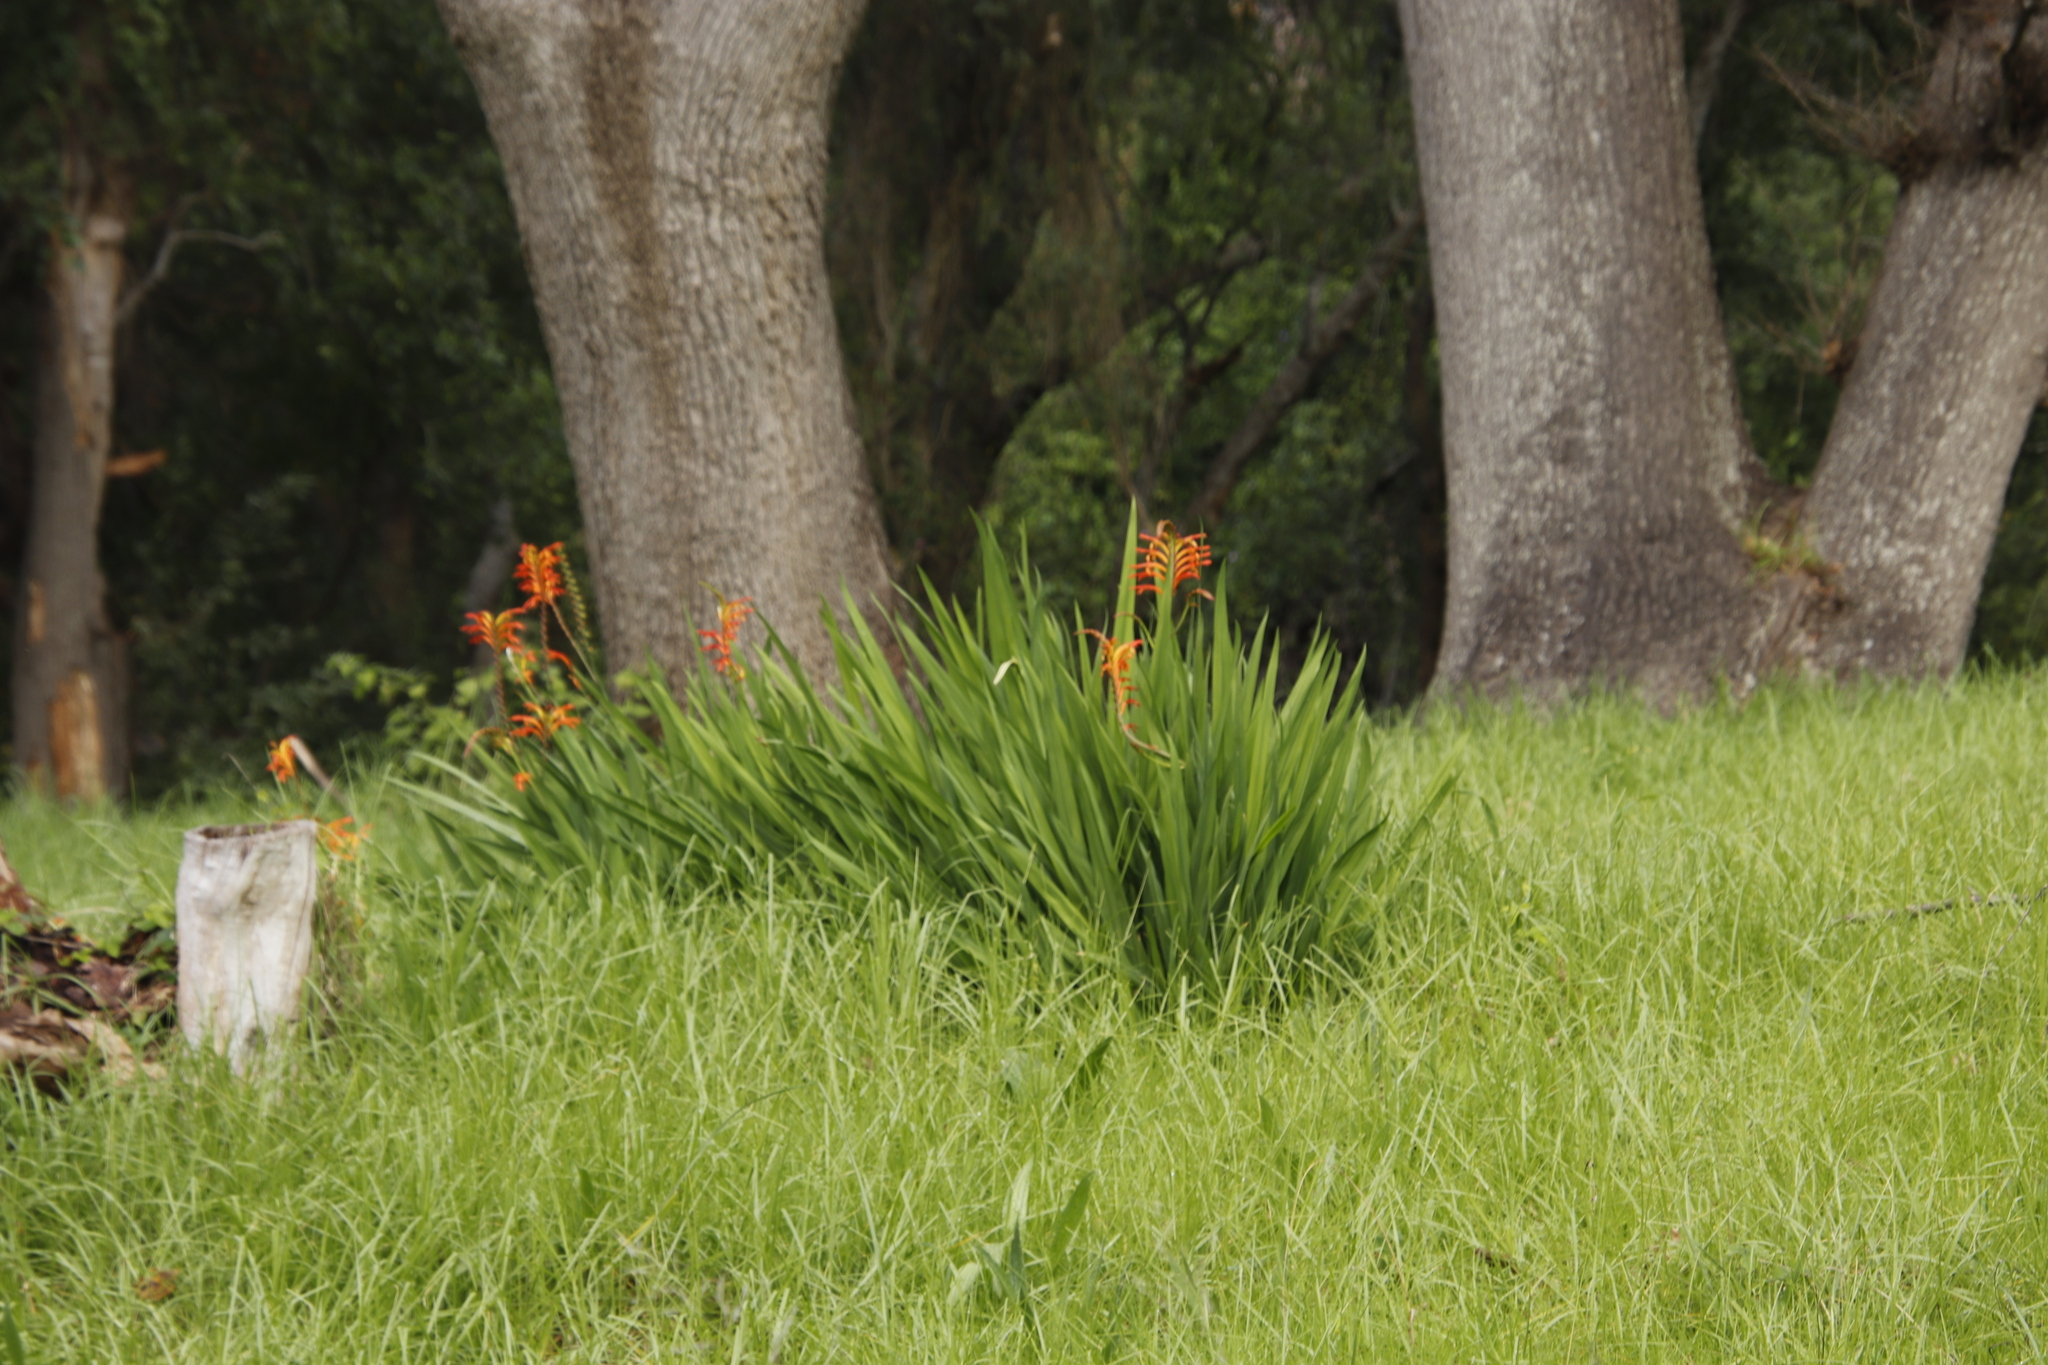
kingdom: Plantae
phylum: Tracheophyta
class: Liliopsida
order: Asparagales
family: Iridaceae
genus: Chasmanthe
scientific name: Chasmanthe floribunda
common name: African cornflag
